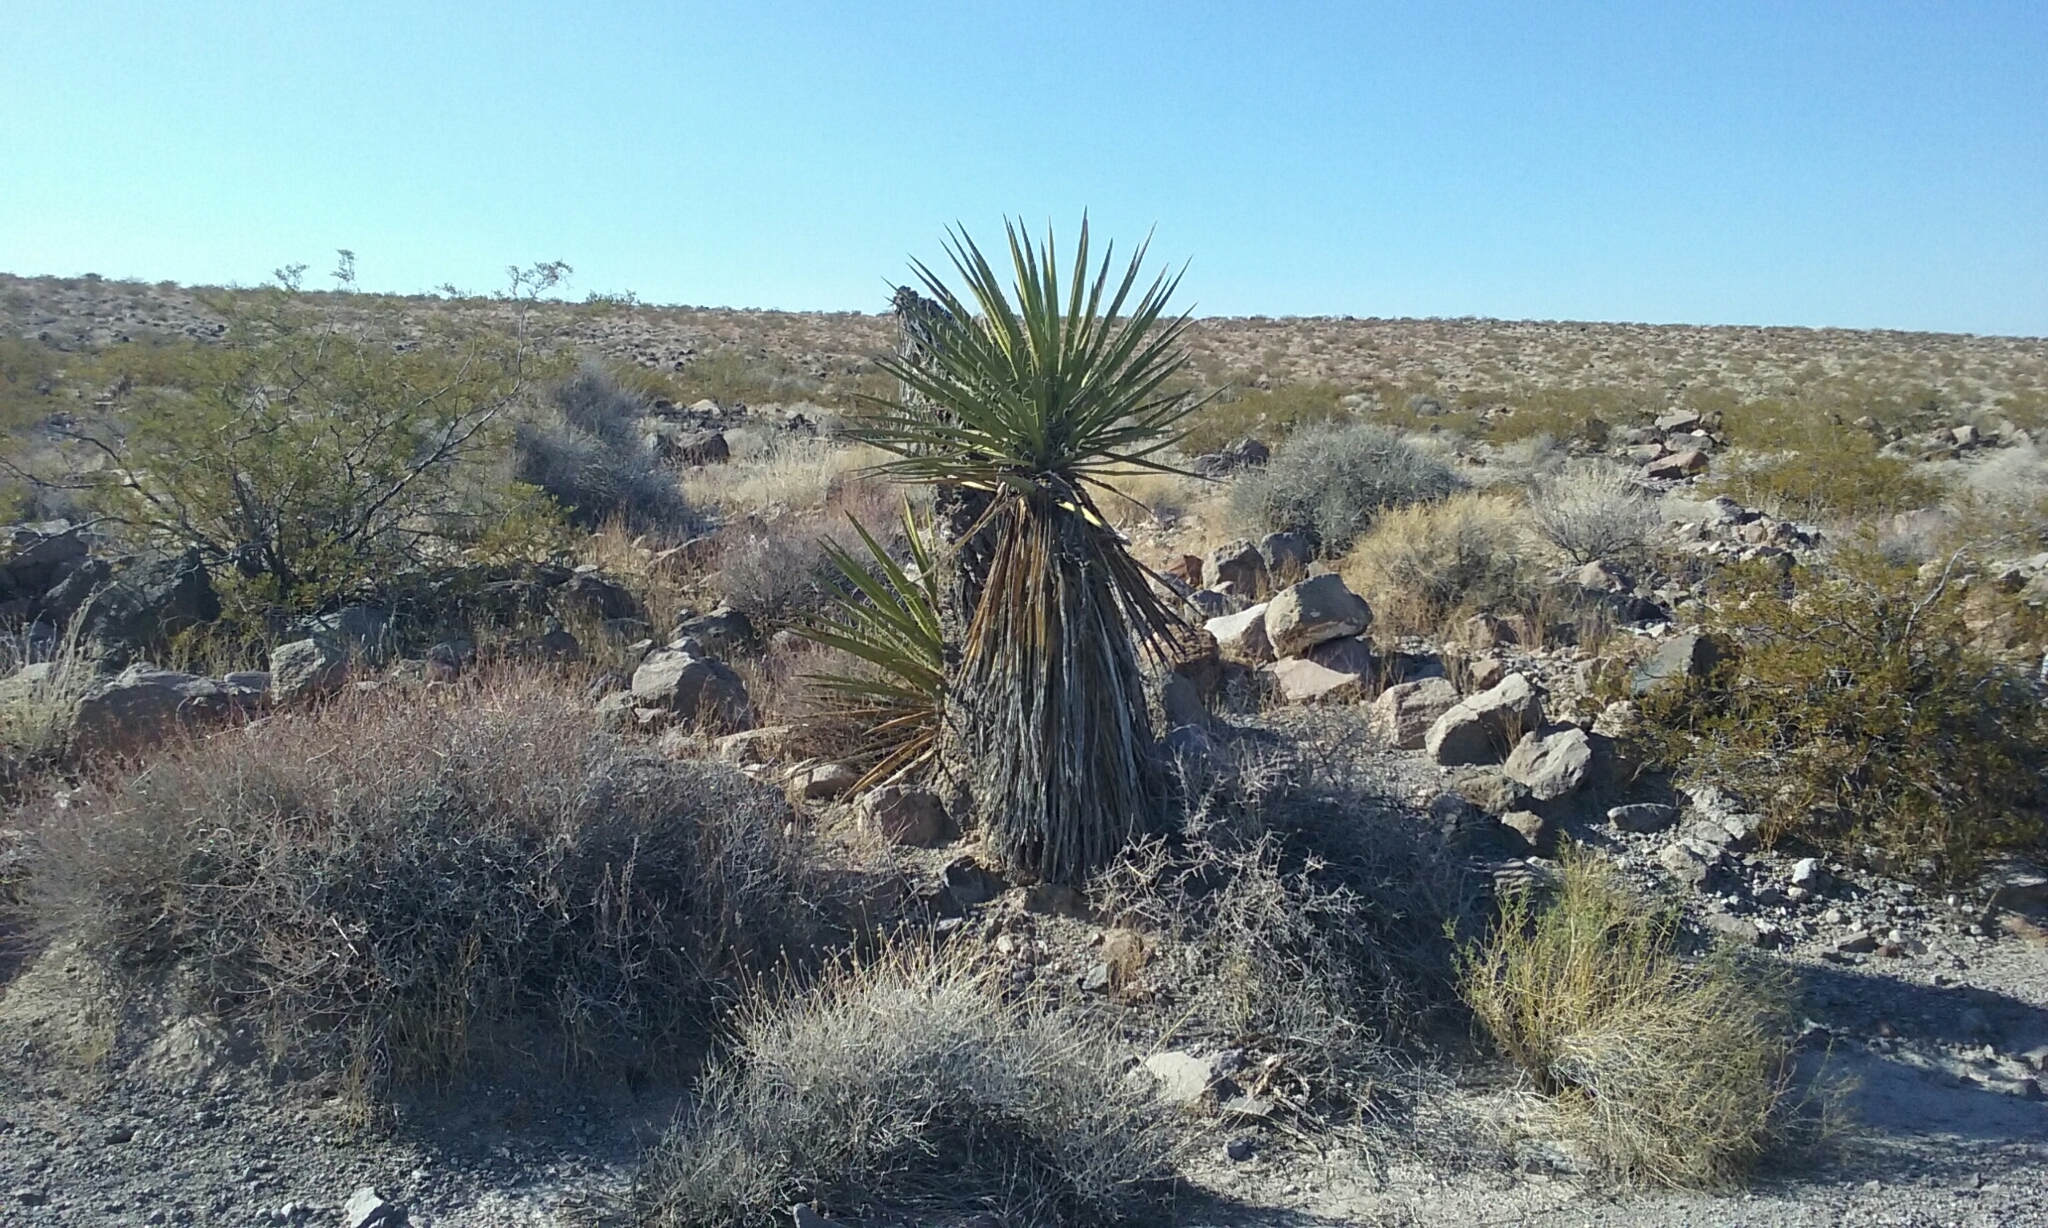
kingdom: Plantae
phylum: Tracheophyta
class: Liliopsida
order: Asparagales
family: Asparagaceae
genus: Yucca
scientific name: Yucca schidigera
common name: Mojave yucca
